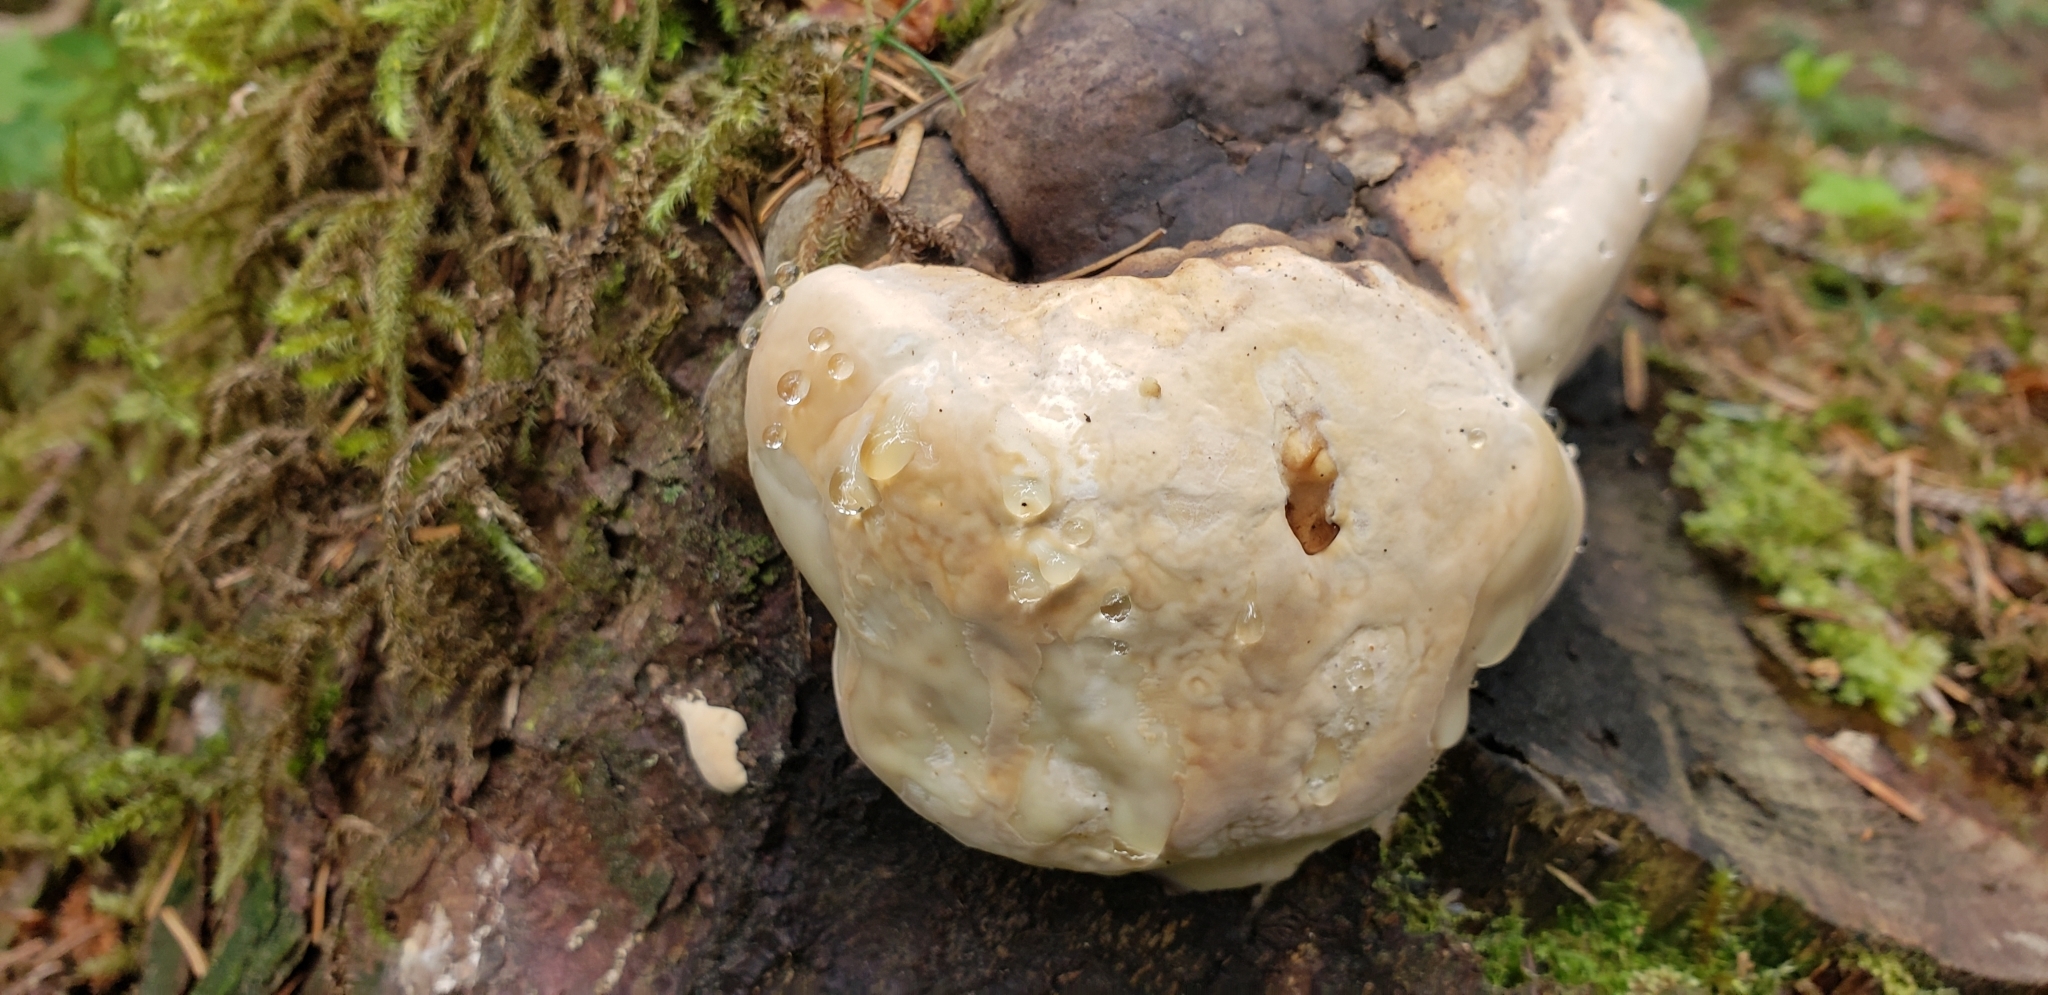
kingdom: Fungi
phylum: Basidiomycota
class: Agaricomycetes
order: Polyporales
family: Fomitopsidaceae
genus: Fomitopsis
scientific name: Fomitopsis ochracea
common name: American brown fomitopsis
